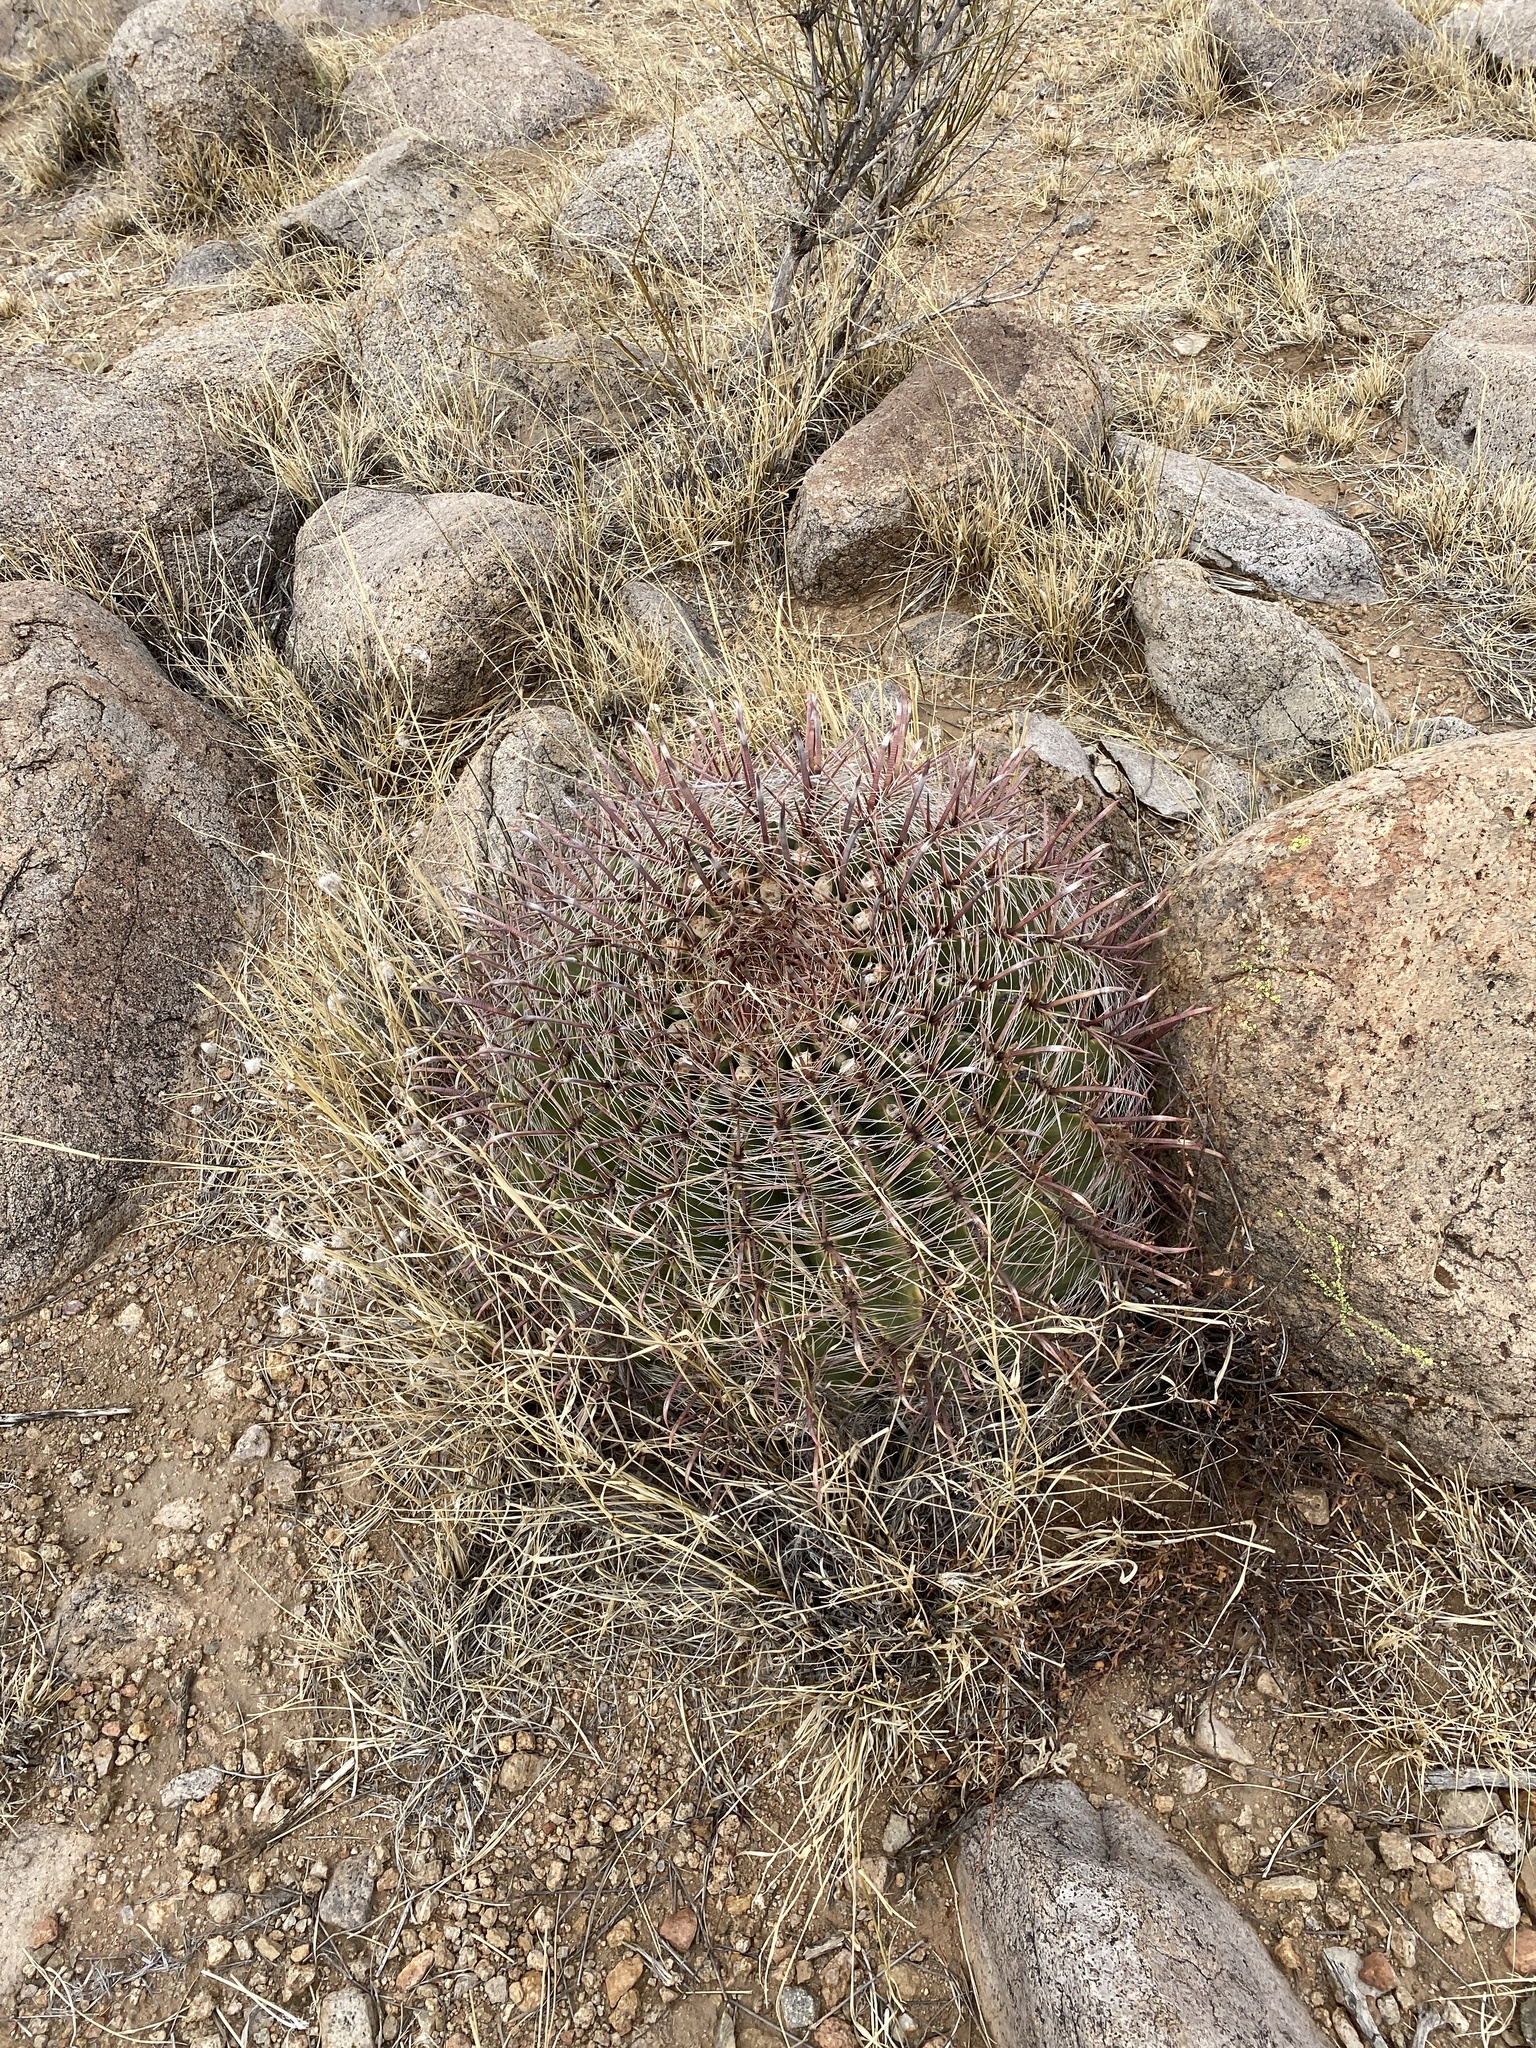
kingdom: Plantae
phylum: Tracheophyta
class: Magnoliopsida
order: Caryophyllales
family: Cactaceae
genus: Ferocactus
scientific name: Ferocactus wislizeni
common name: Candy barrel cactus
